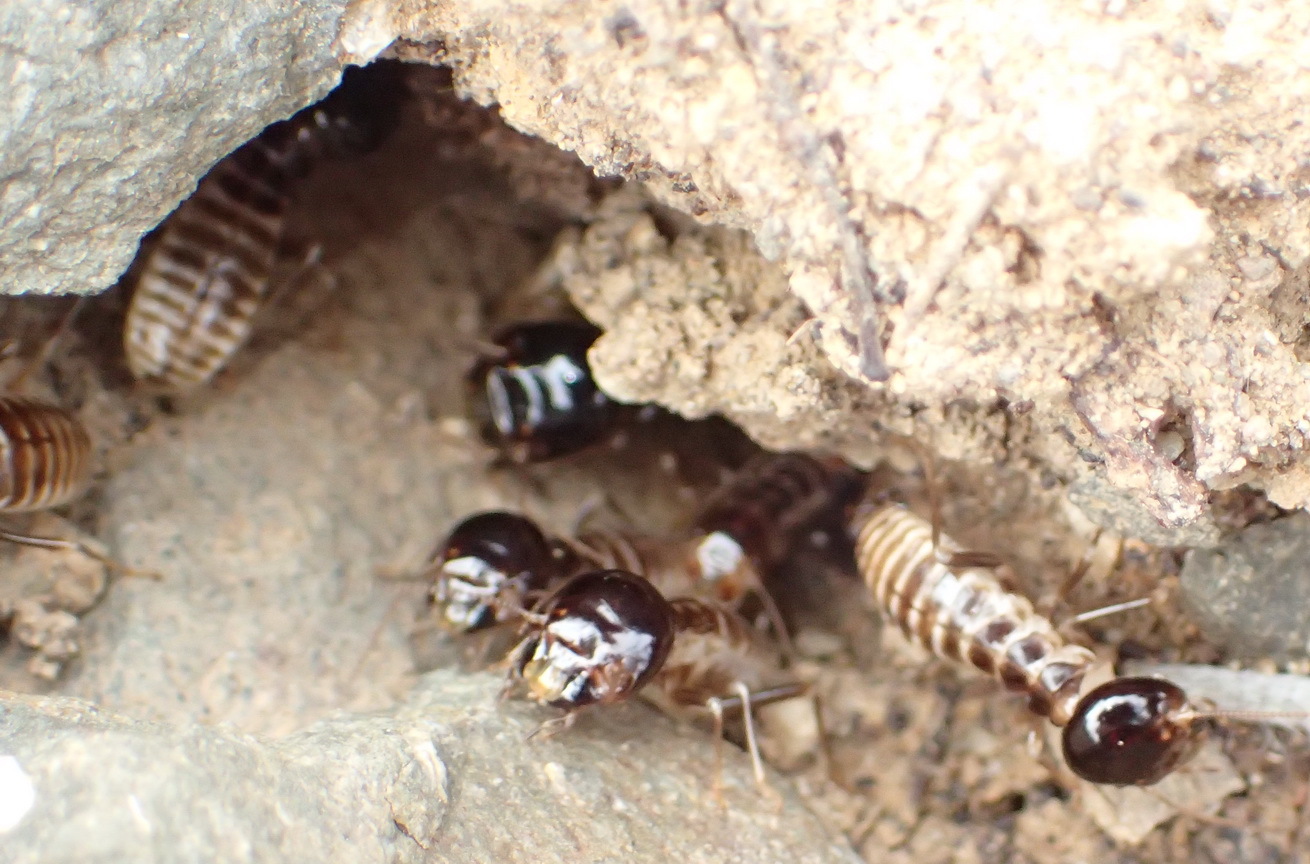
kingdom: Animalia
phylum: Arthropoda
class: Insecta
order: Blattodea
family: Hodotermitidae
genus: Microhodotermes
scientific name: Microhodotermes viator
